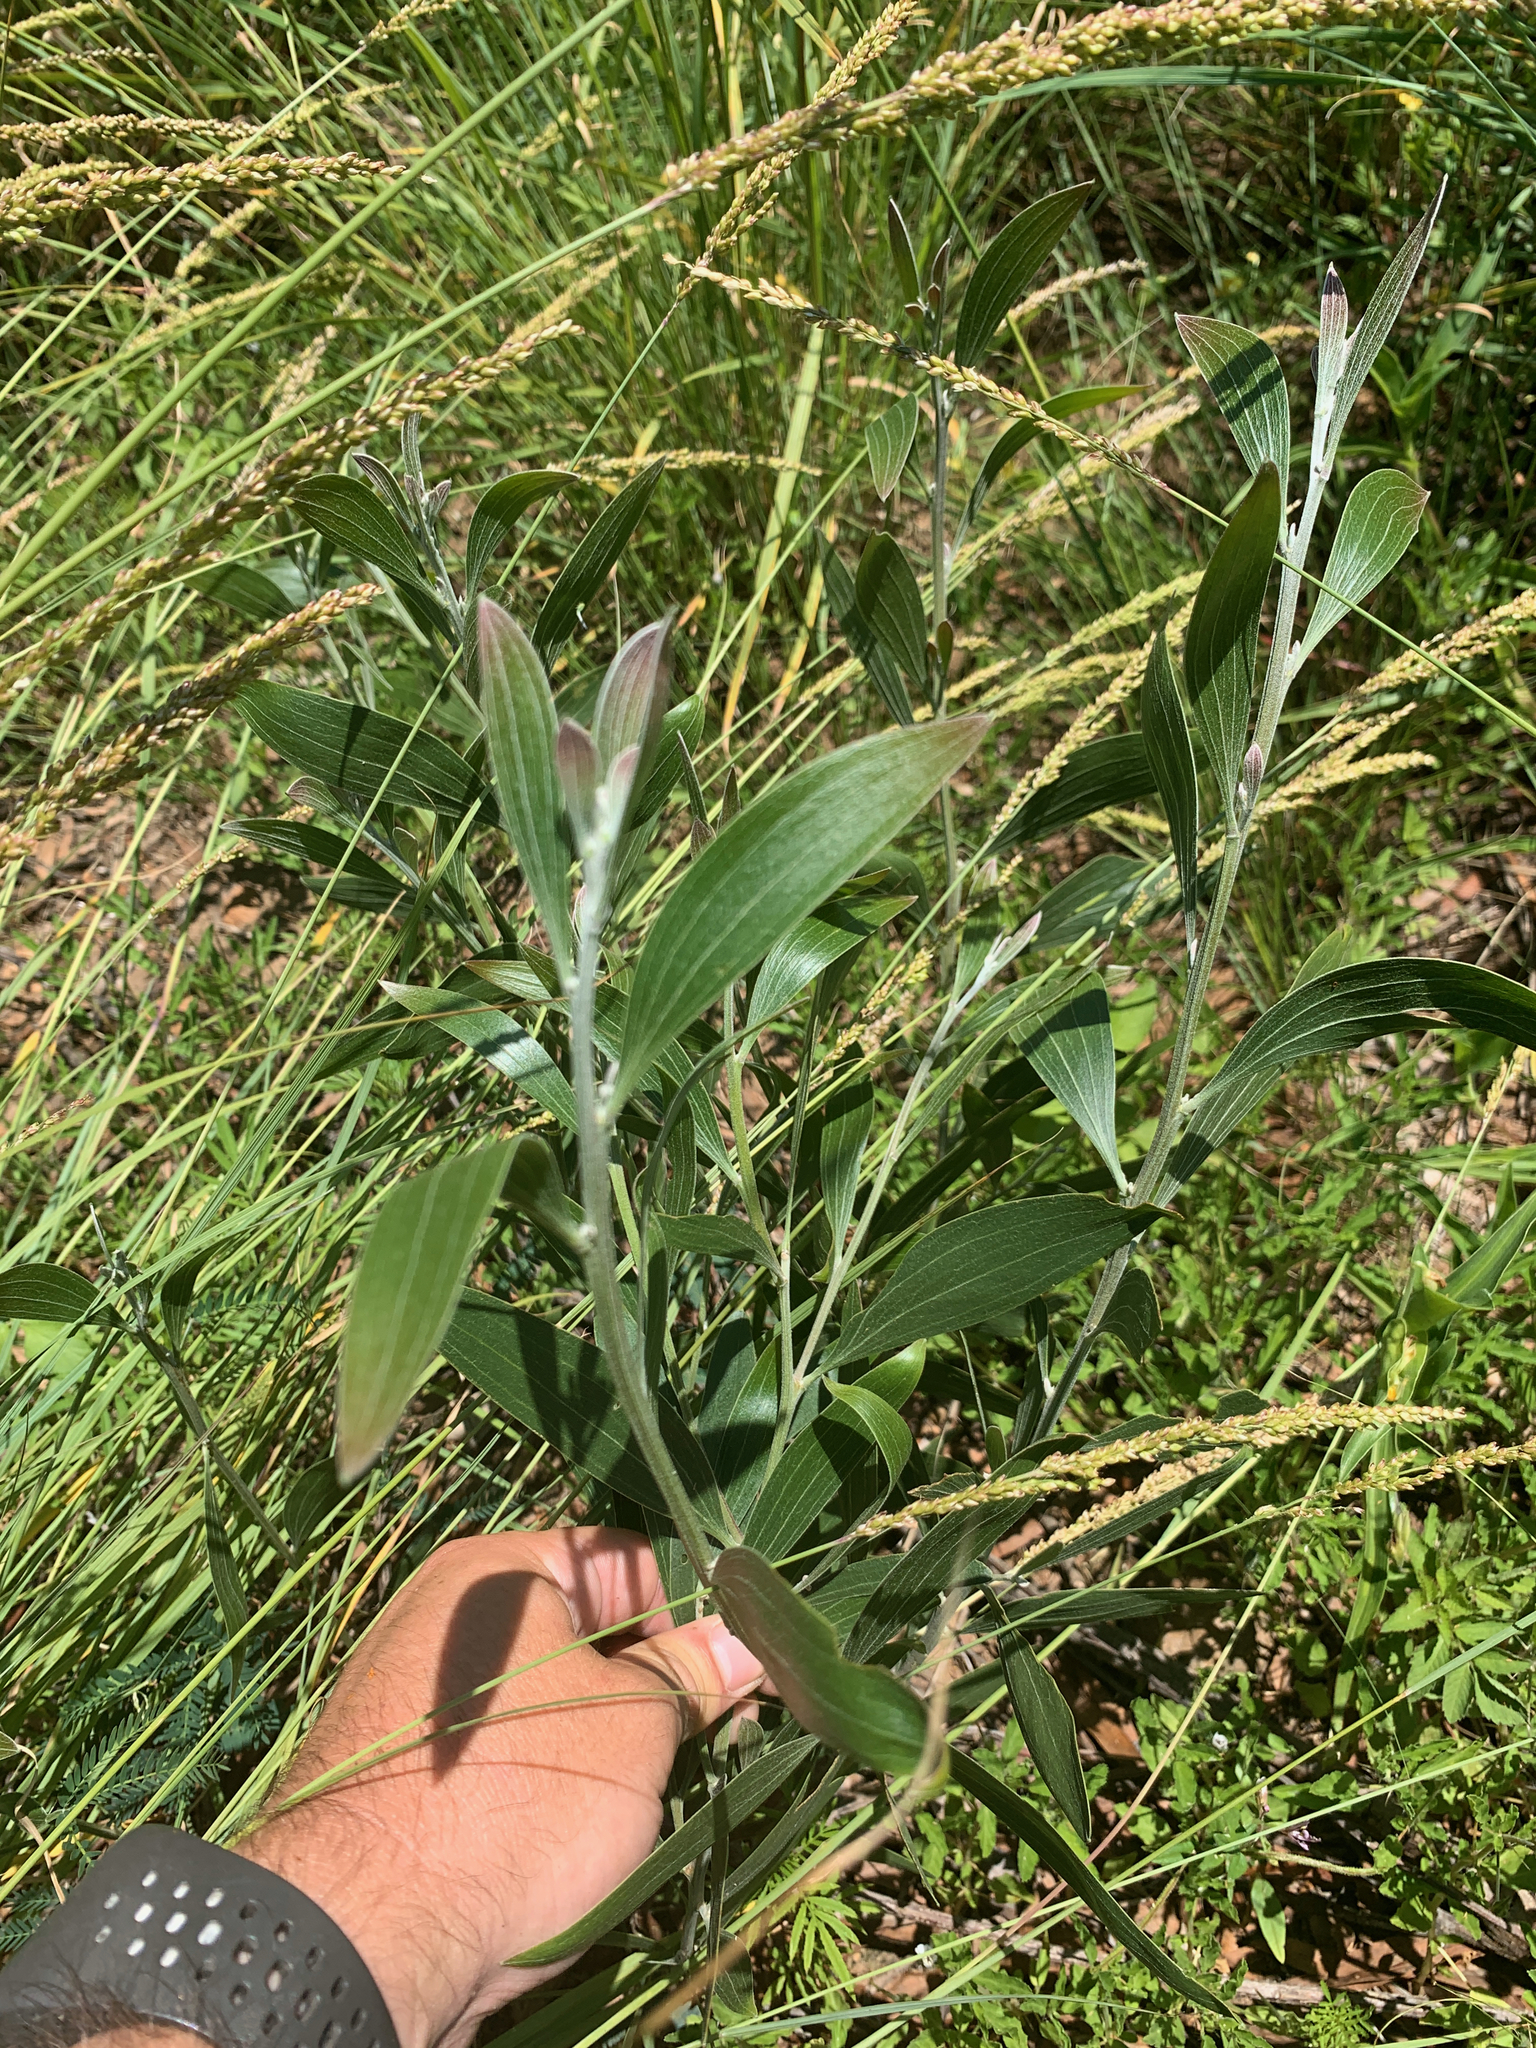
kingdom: Plantae
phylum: Tracheophyta
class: Magnoliopsida
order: Fabales
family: Fabaceae
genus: Acacia
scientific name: Acacia melanoxylon
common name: Blackwood
